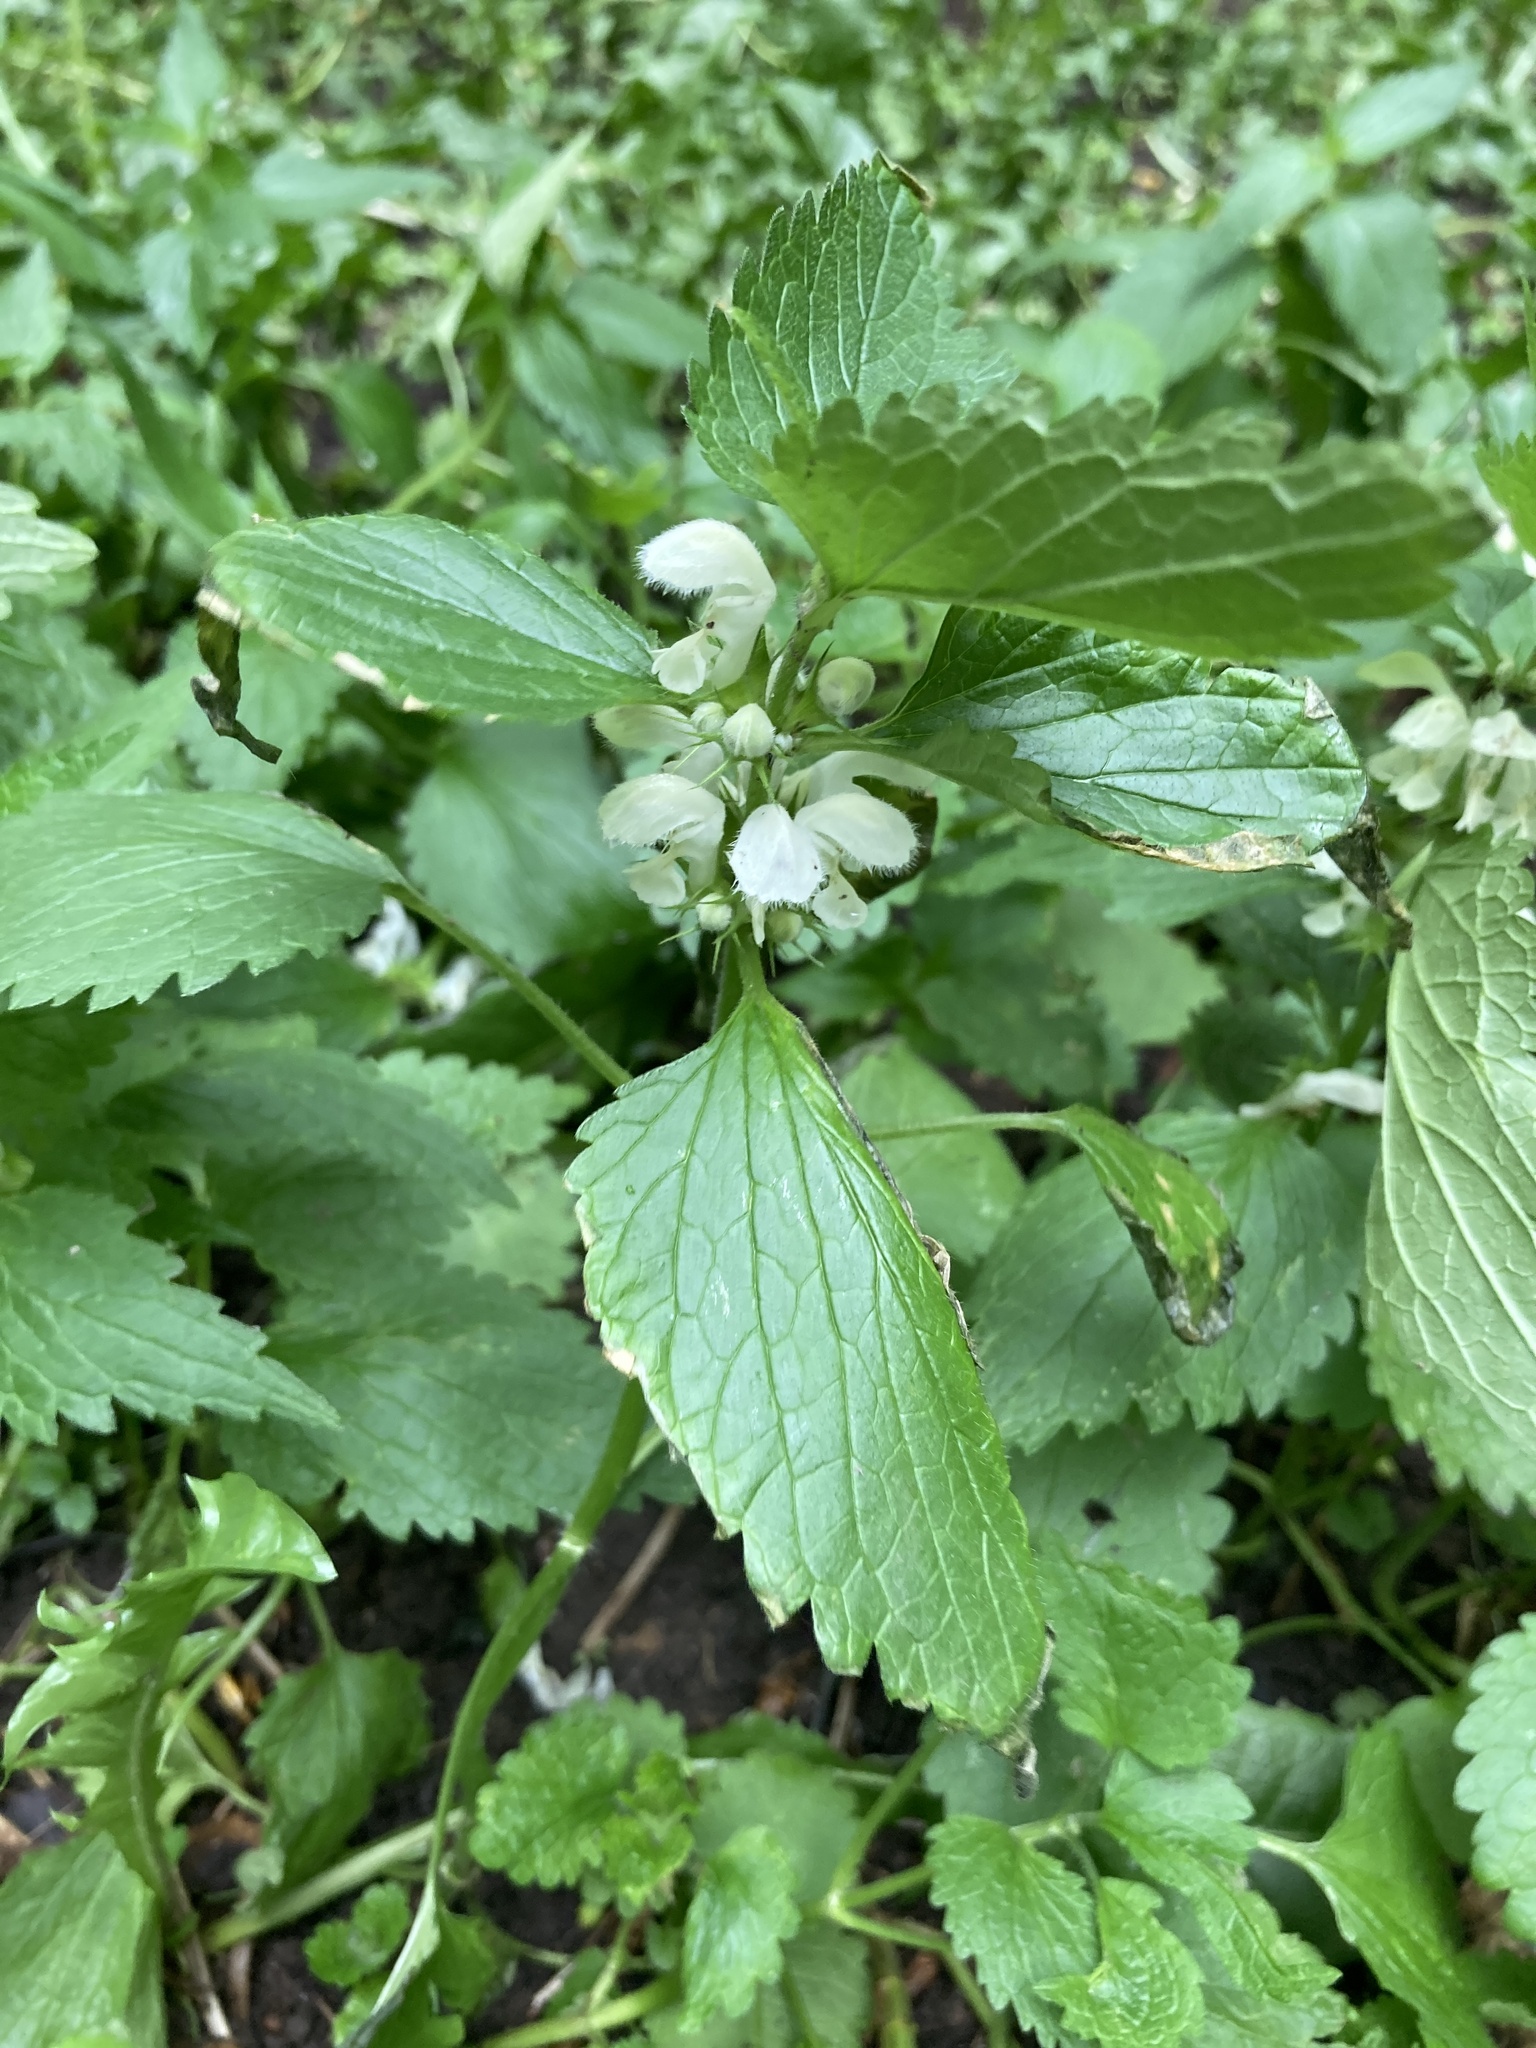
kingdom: Plantae
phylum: Tracheophyta
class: Magnoliopsida
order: Lamiales
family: Lamiaceae
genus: Lamium
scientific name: Lamium album
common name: White dead-nettle
